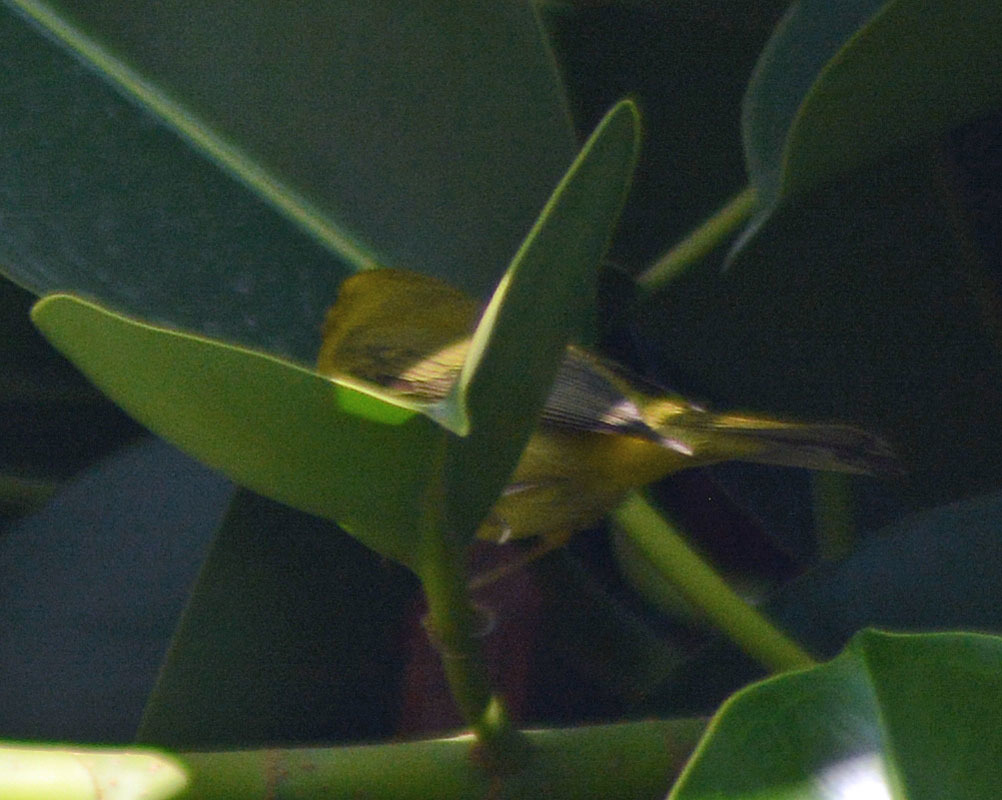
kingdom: Animalia
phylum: Chordata
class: Aves
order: Passeriformes
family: Parulidae
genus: Cardellina
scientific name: Cardellina pusilla
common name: Wilson's warbler
